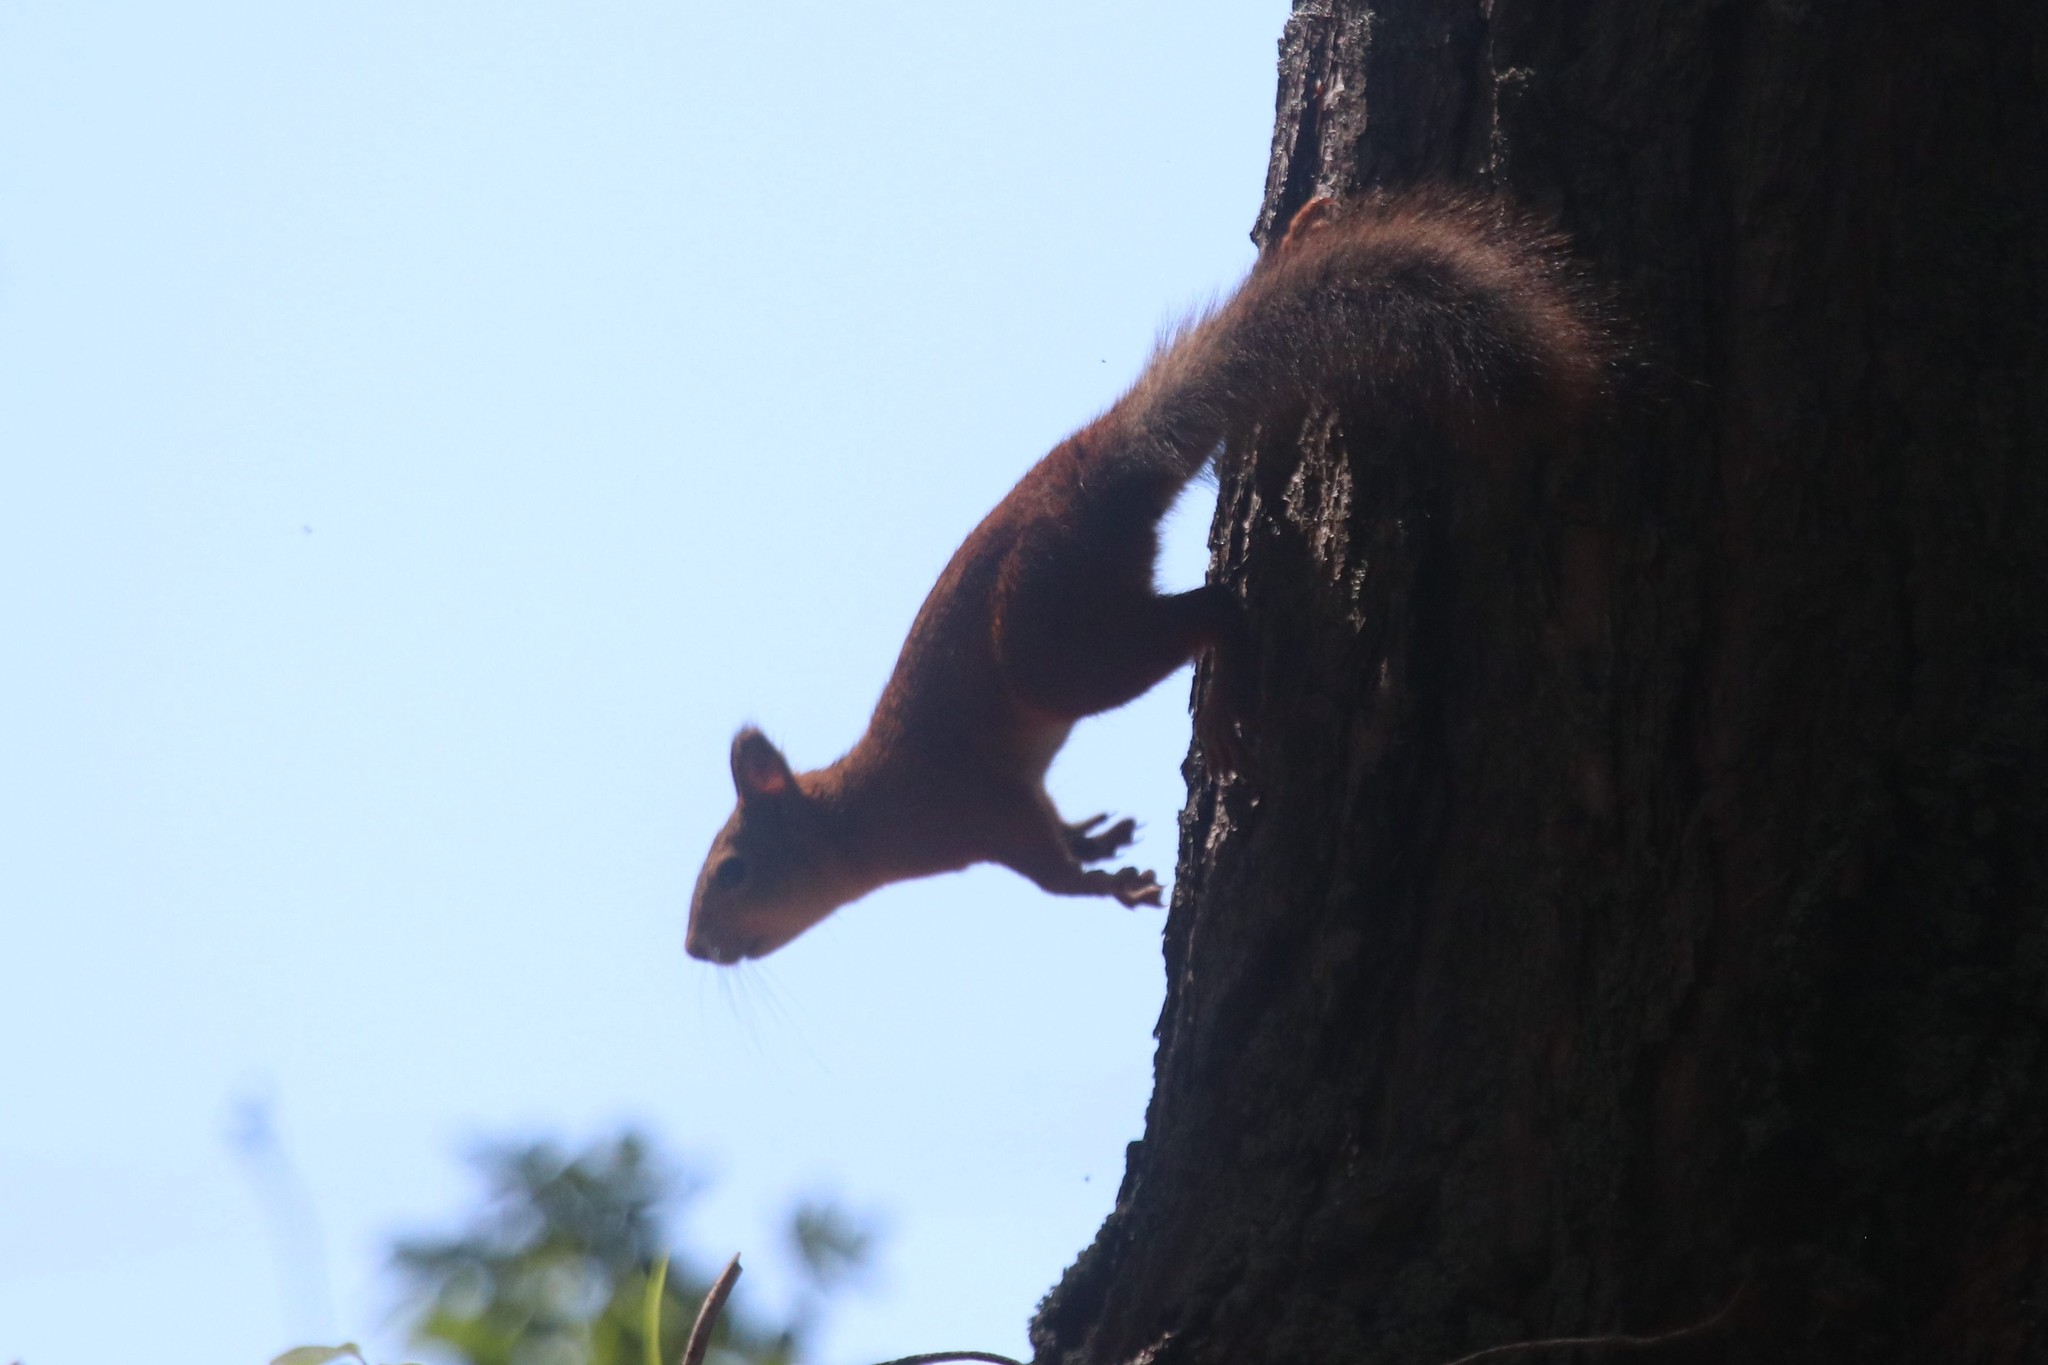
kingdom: Animalia
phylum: Chordata
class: Mammalia
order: Rodentia
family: Sciuridae
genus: Sciurus
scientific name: Sciurus vulgaris
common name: Eurasian red squirrel
